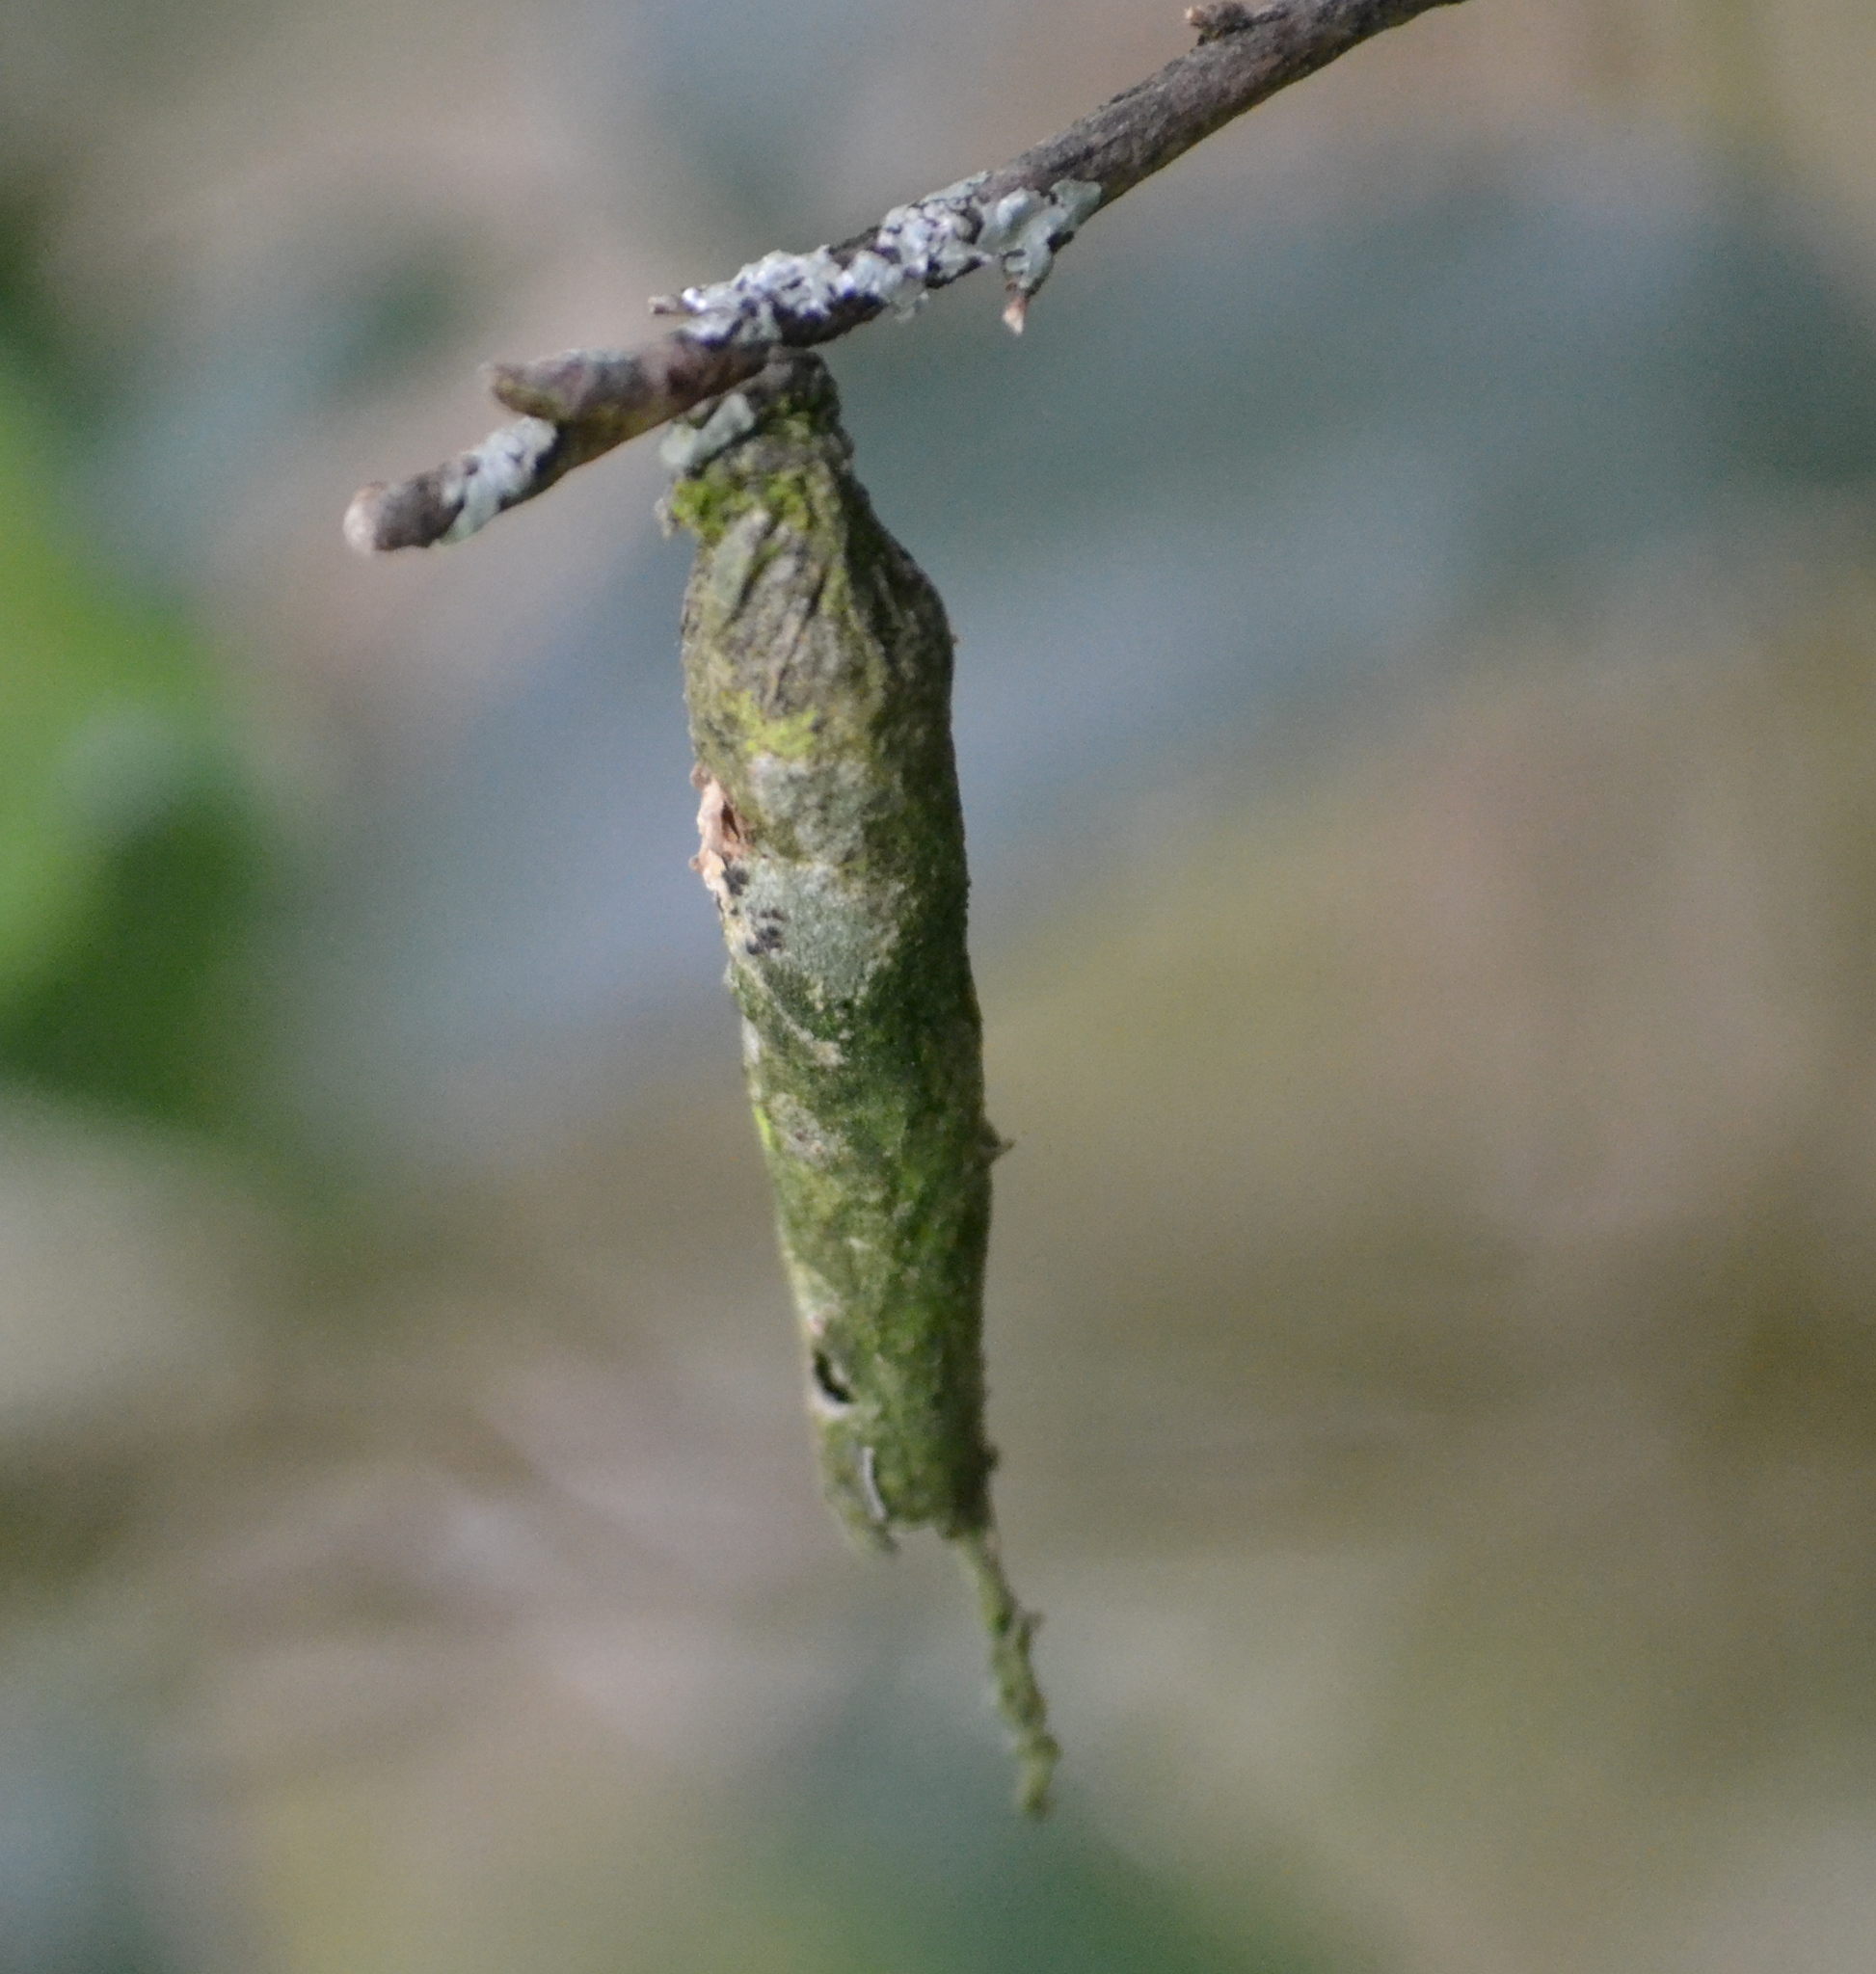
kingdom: Animalia
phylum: Arthropoda
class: Insecta
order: Lepidoptera
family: Psychidae
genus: Liothula
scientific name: Liothula omnivora
